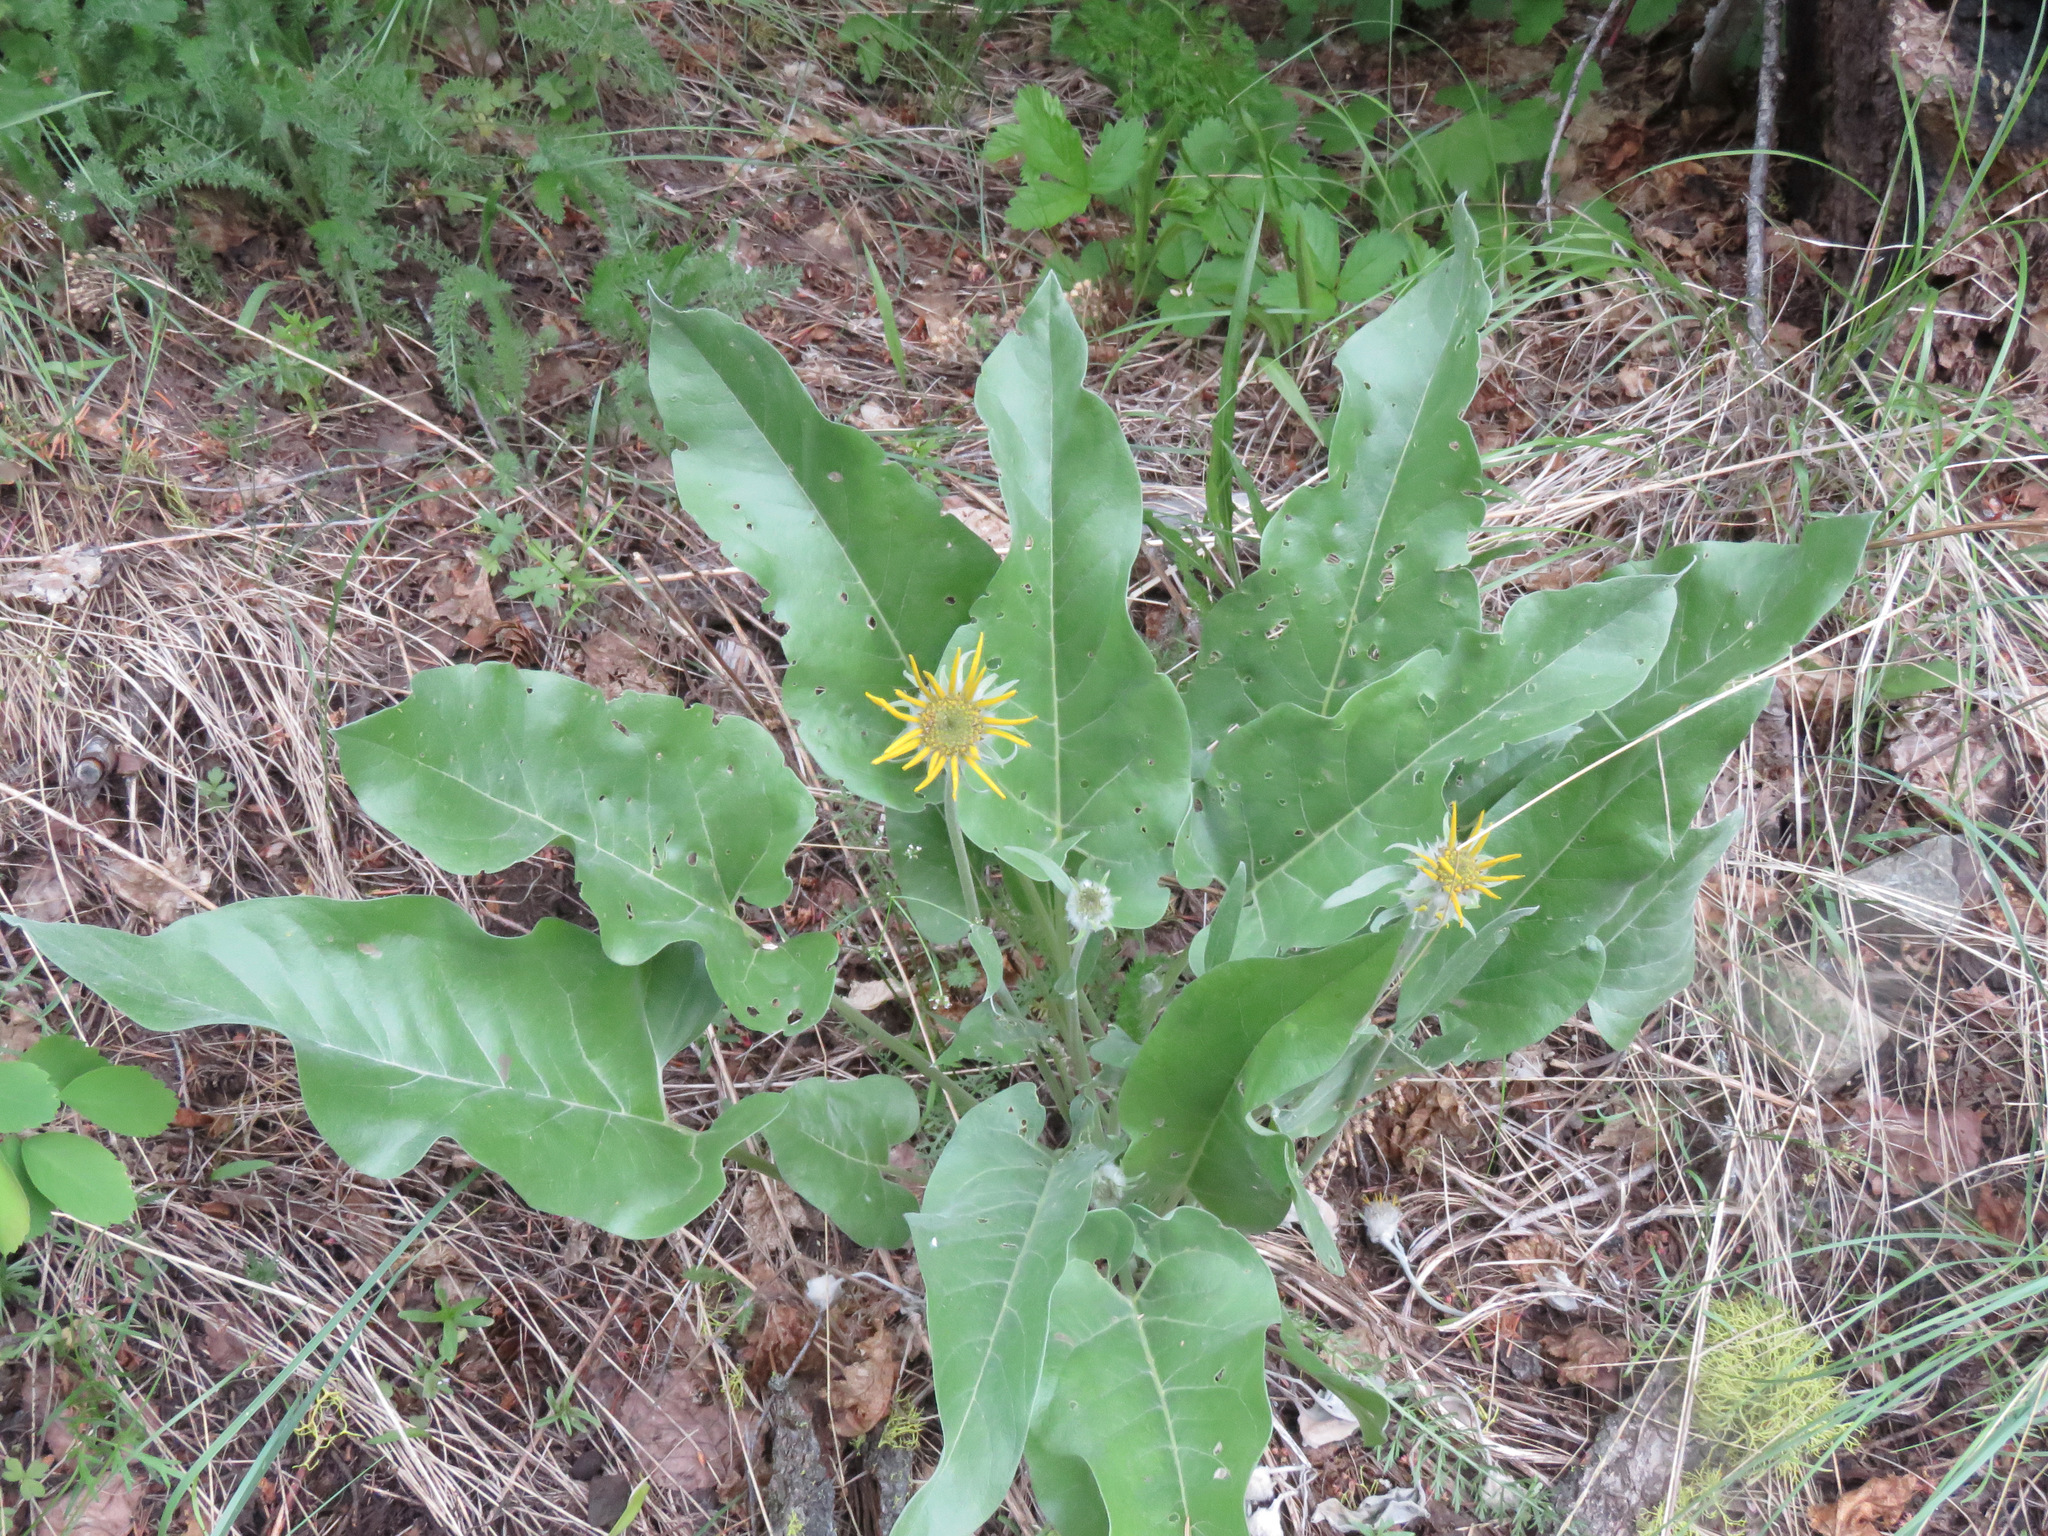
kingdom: Plantae
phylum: Tracheophyta
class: Magnoliopsida
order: Asterales
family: Asteraceae
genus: Wyethia
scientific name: Wyethia sagittata
